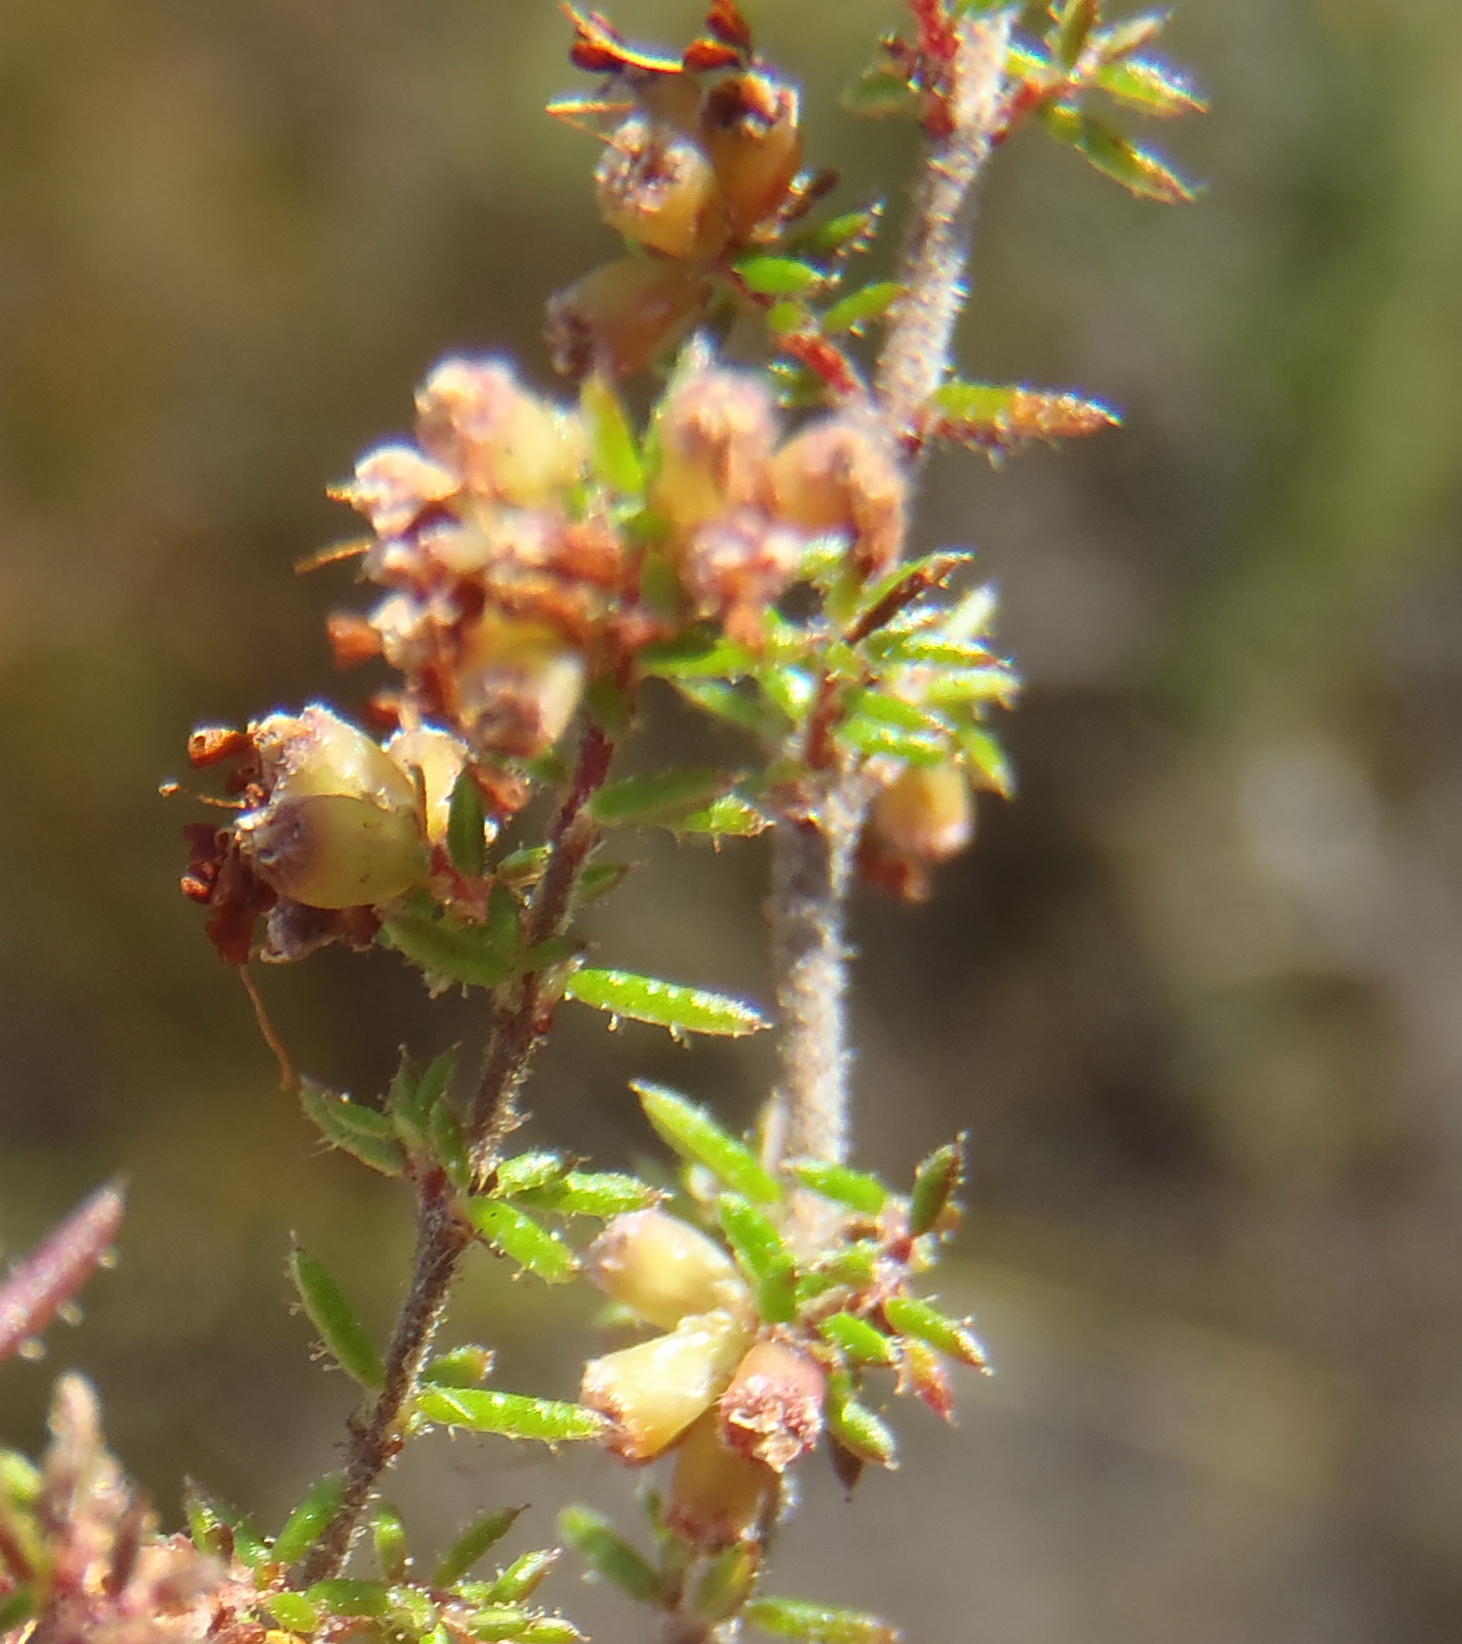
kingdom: Plantae
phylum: Tracheophyta
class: Magnoliopsida
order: Ericales
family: Ericaceae
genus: Erica
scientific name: Erica anguliger
